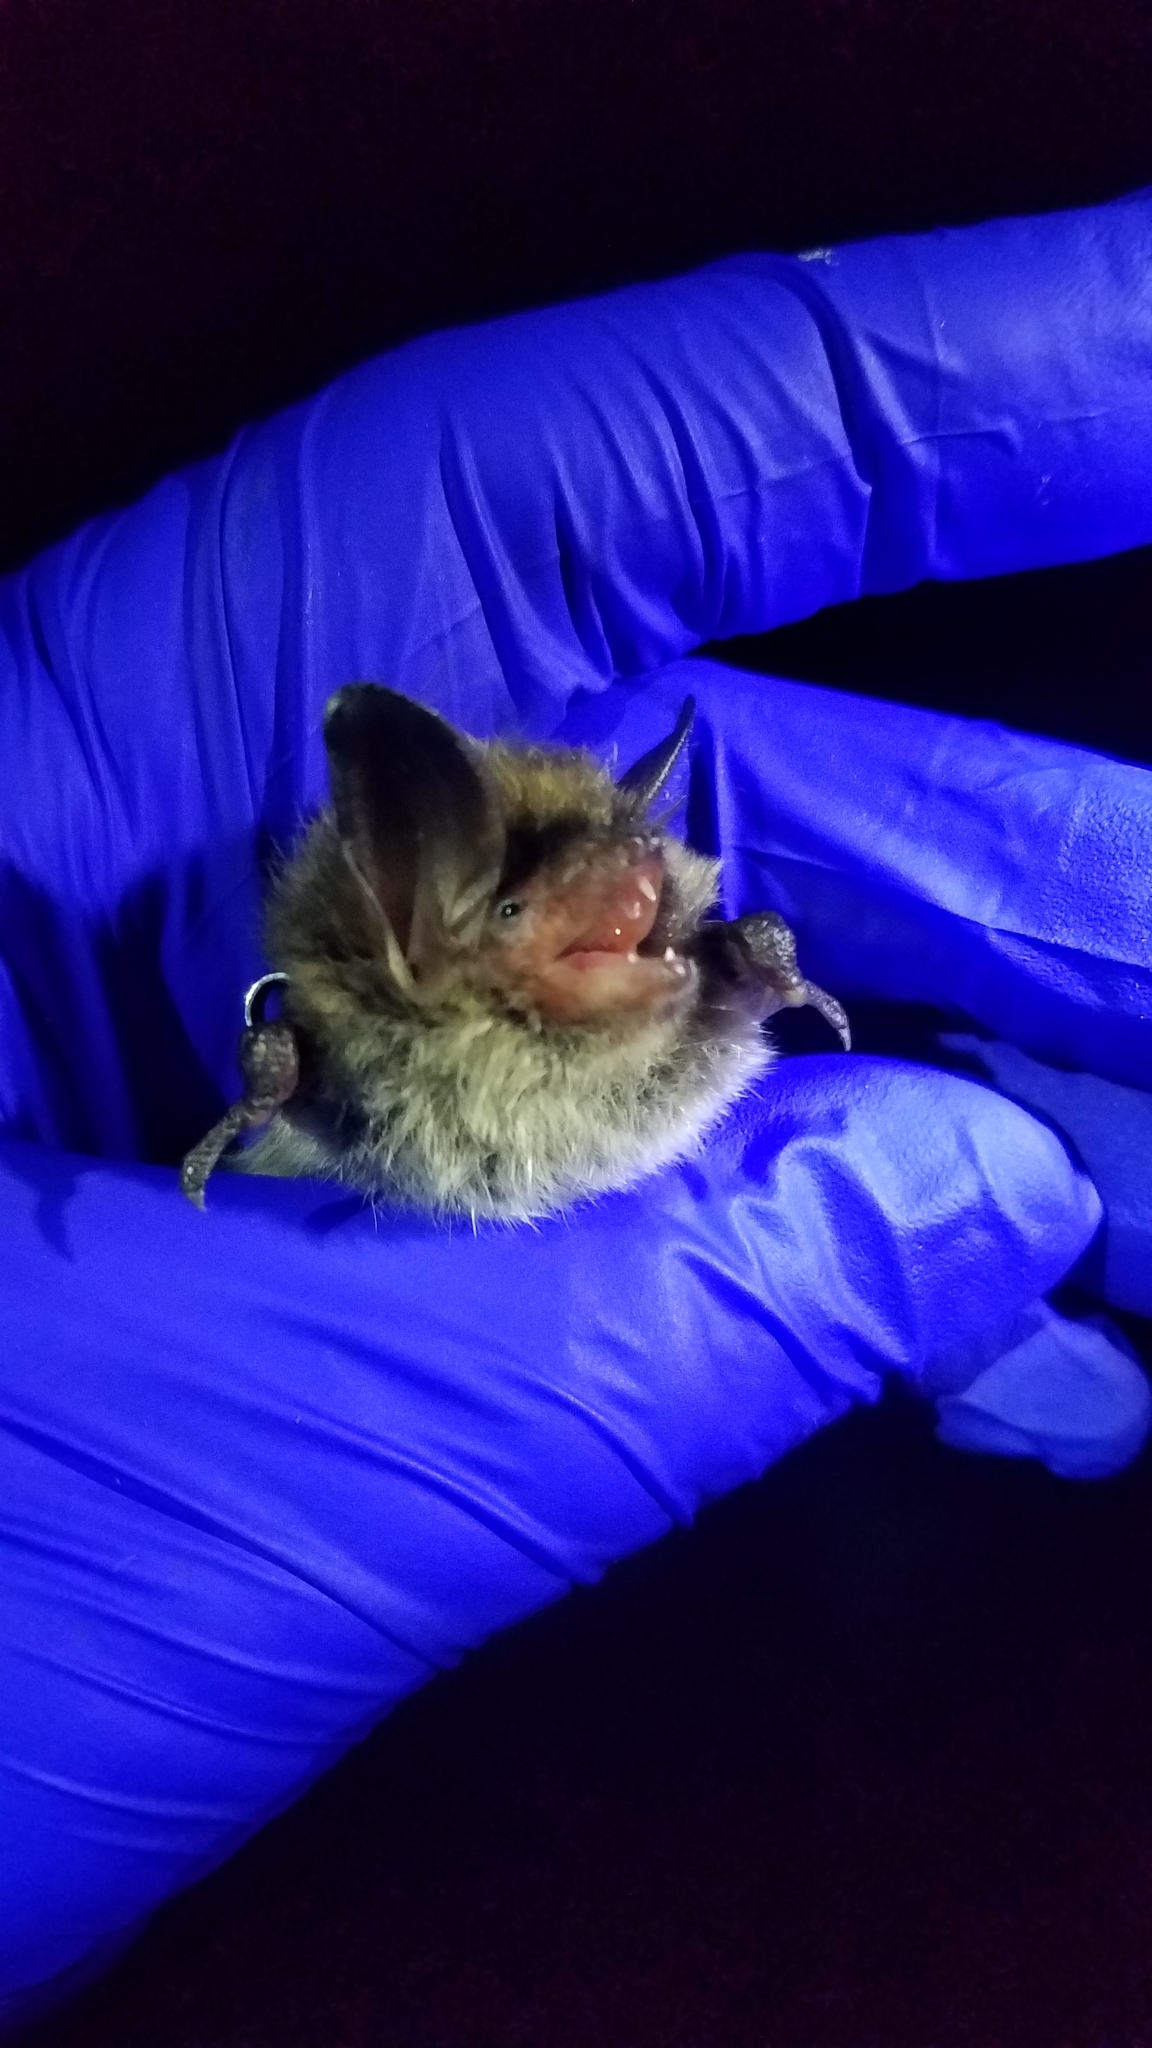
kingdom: Animalia
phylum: Chordata
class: Mammalia
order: Chiroptera
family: Vespertilionidae
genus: Myotis
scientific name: Myotis septentrionalis
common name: Northern myotis
